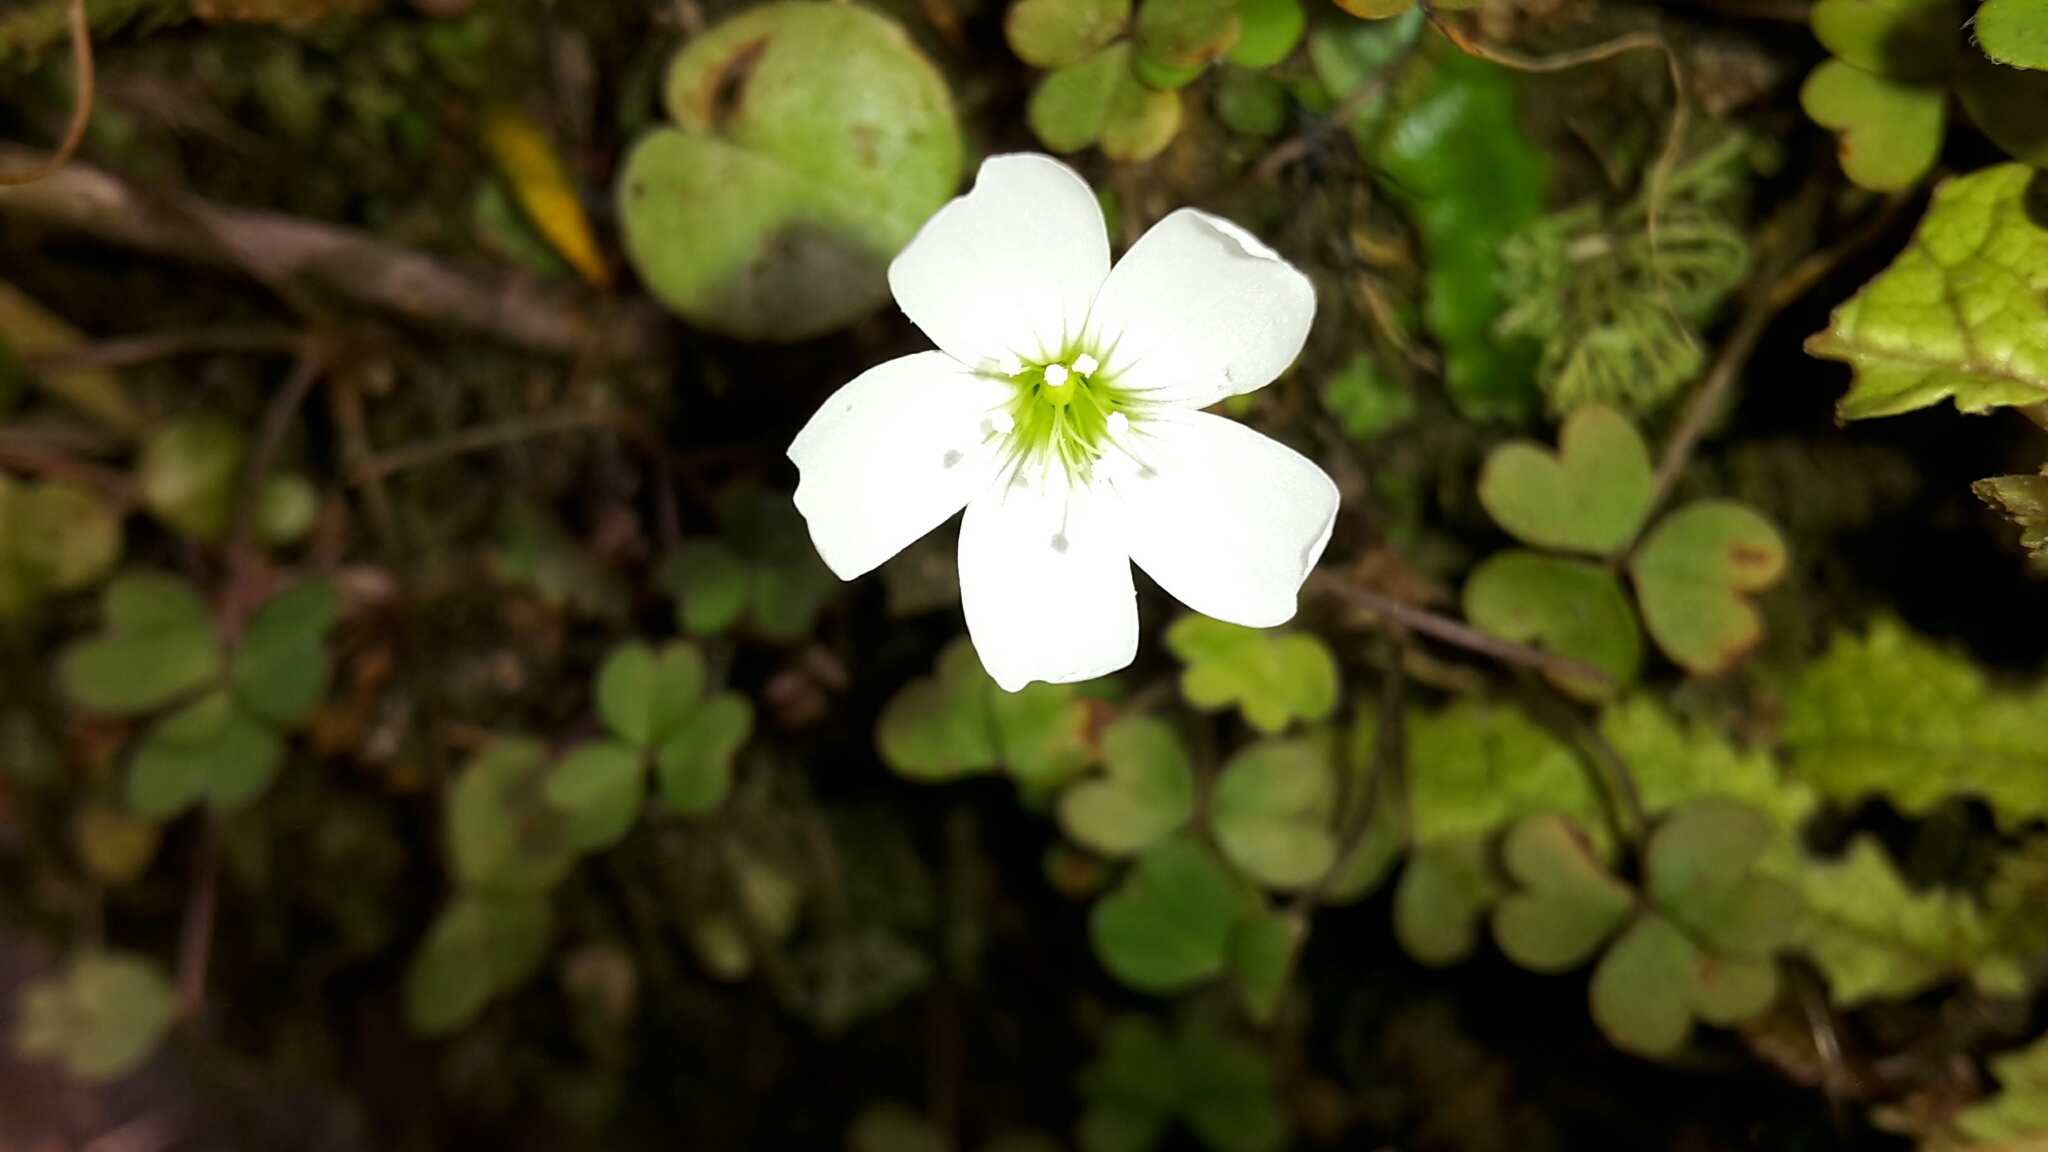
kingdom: Plantae
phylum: Tracheophyta
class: Magnoliopsida
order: Oxalidales
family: Oxalidaceae
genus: Oxalis
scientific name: Oxalis magellanica
